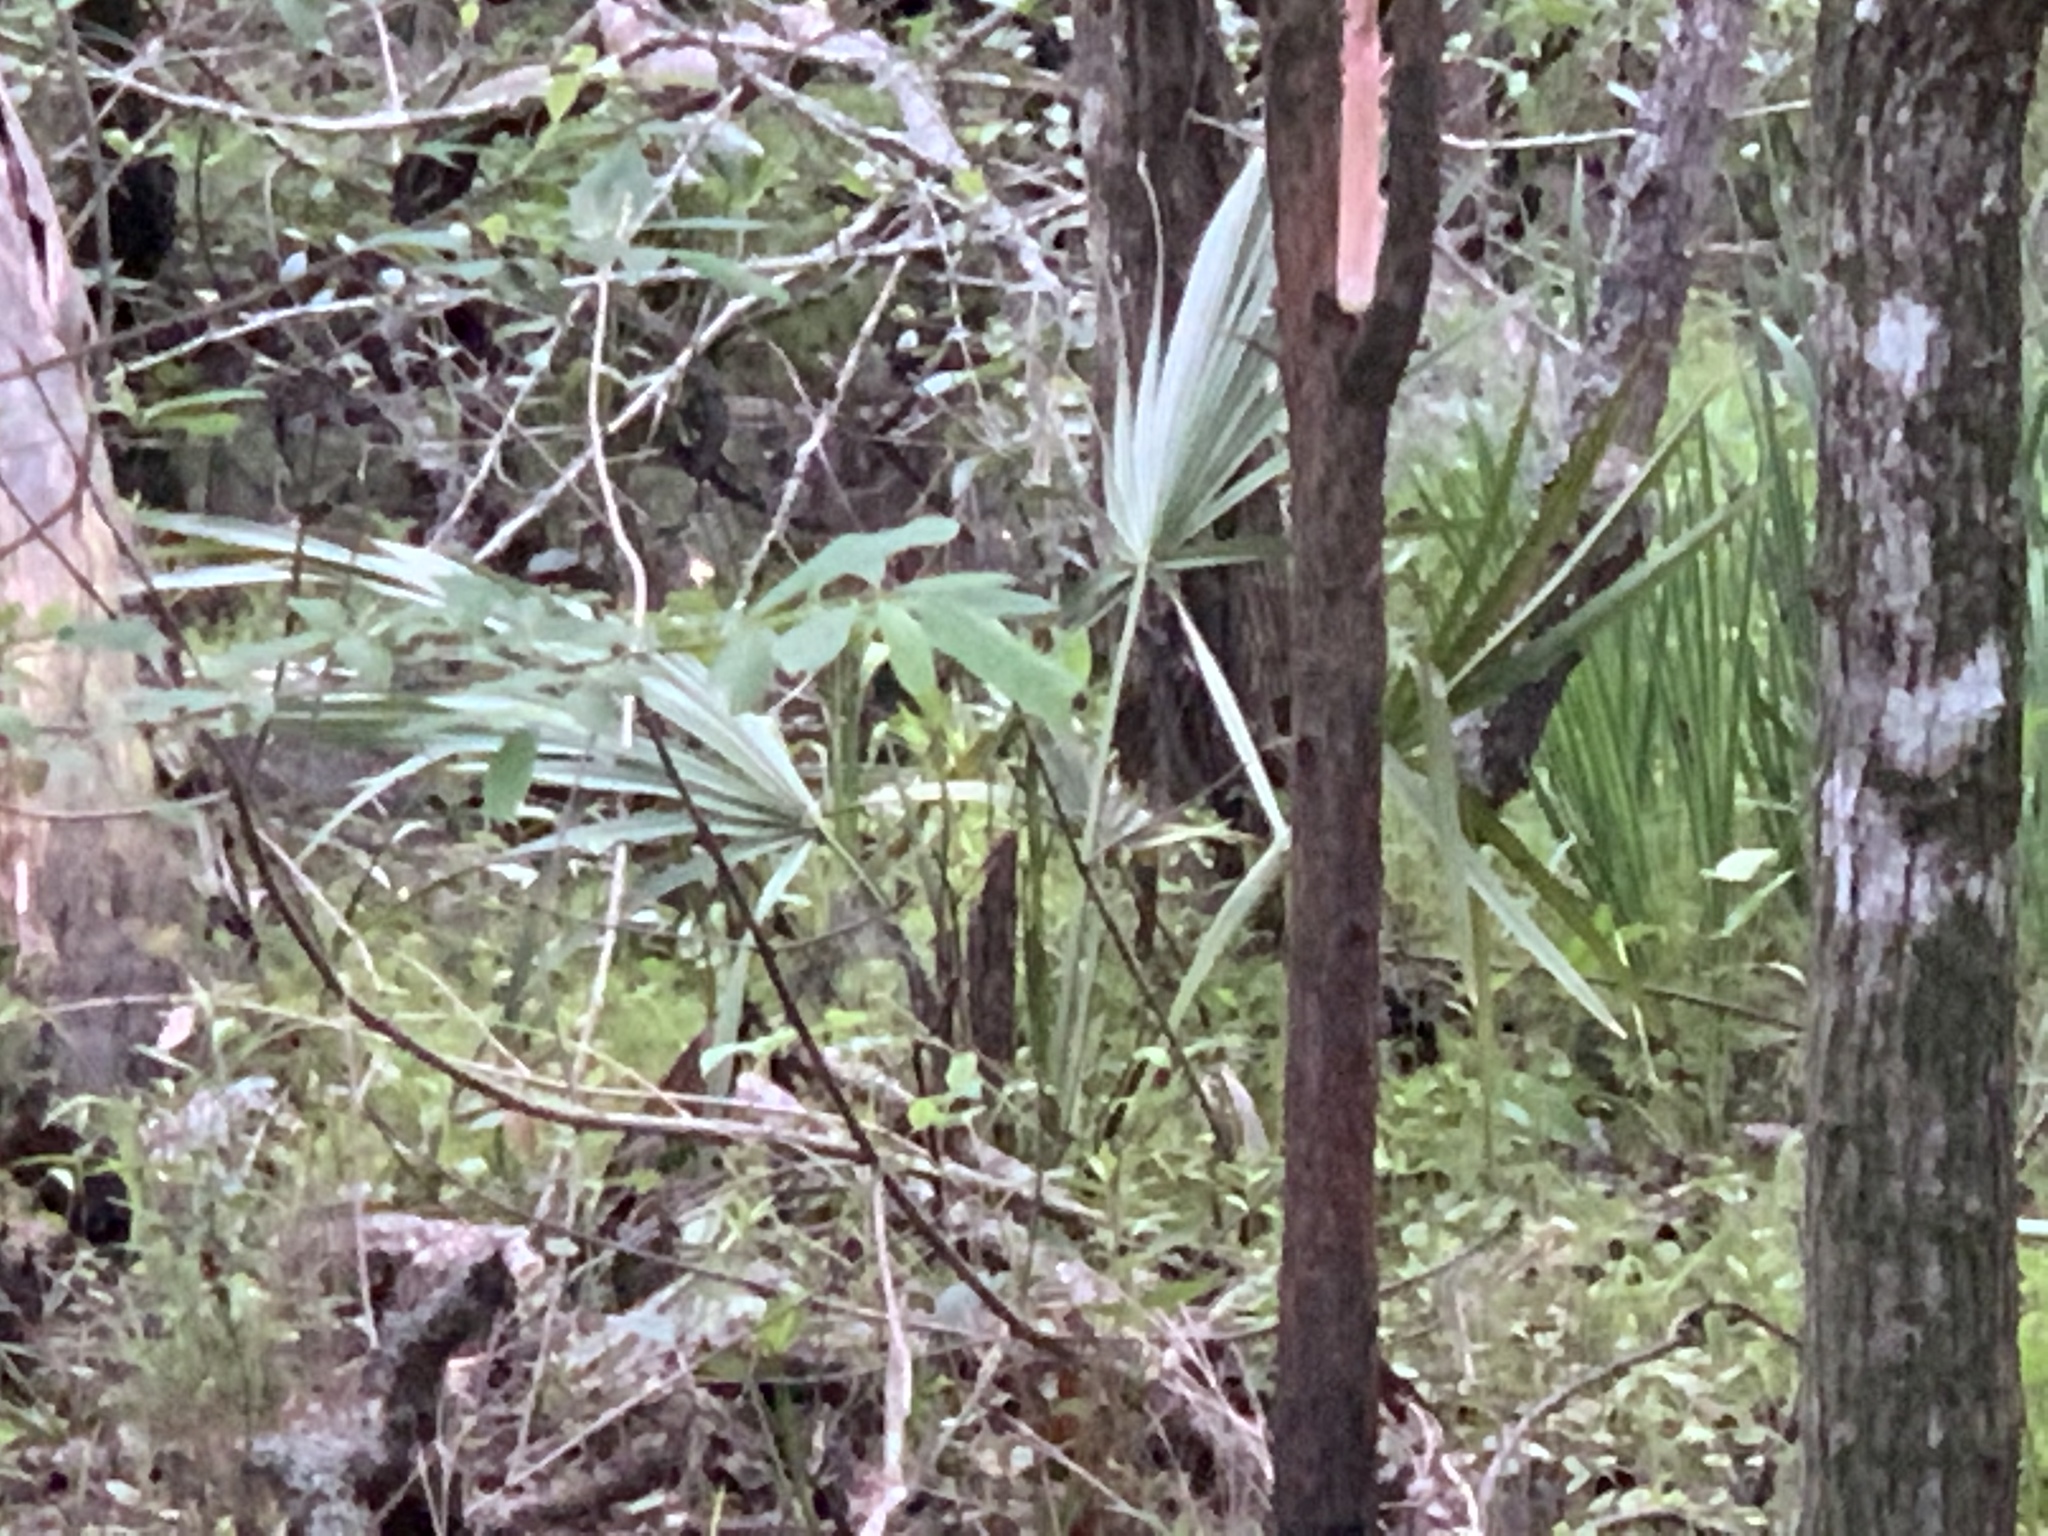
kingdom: Plantae
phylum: Tracheophyta
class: Liliopsida
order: Arecales
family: Arecaceae
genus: Sabal
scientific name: Sabal minor
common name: Dwarf palmetto
